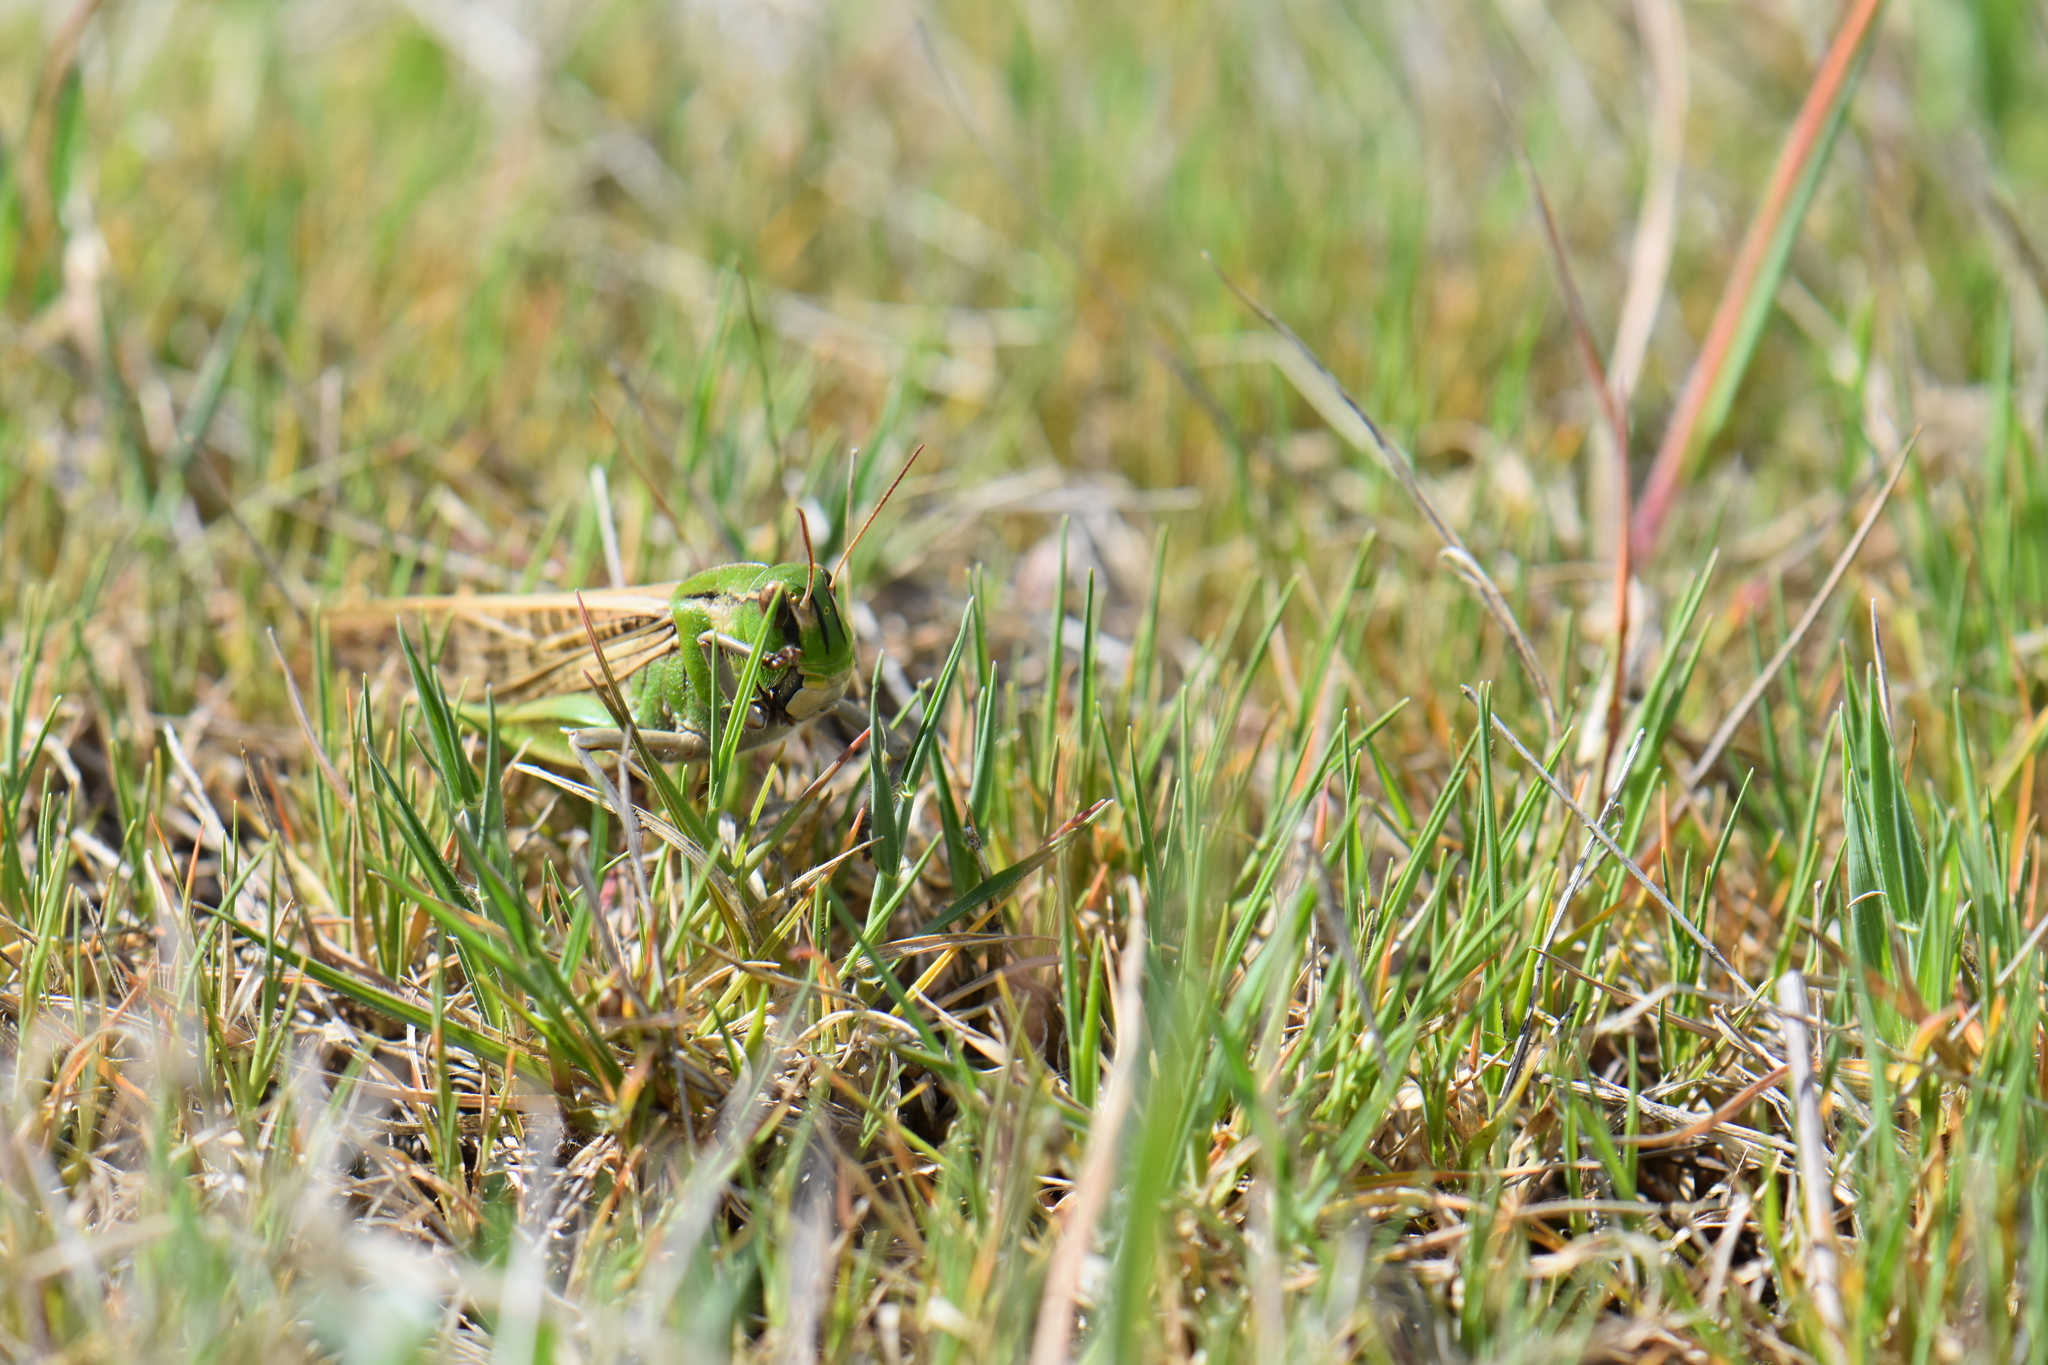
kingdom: Animalia
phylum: Arthropoda
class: Insecta
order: Orthoptera
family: Acrididae
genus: Locusta
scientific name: Locusta migratoria
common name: Migratory locust
